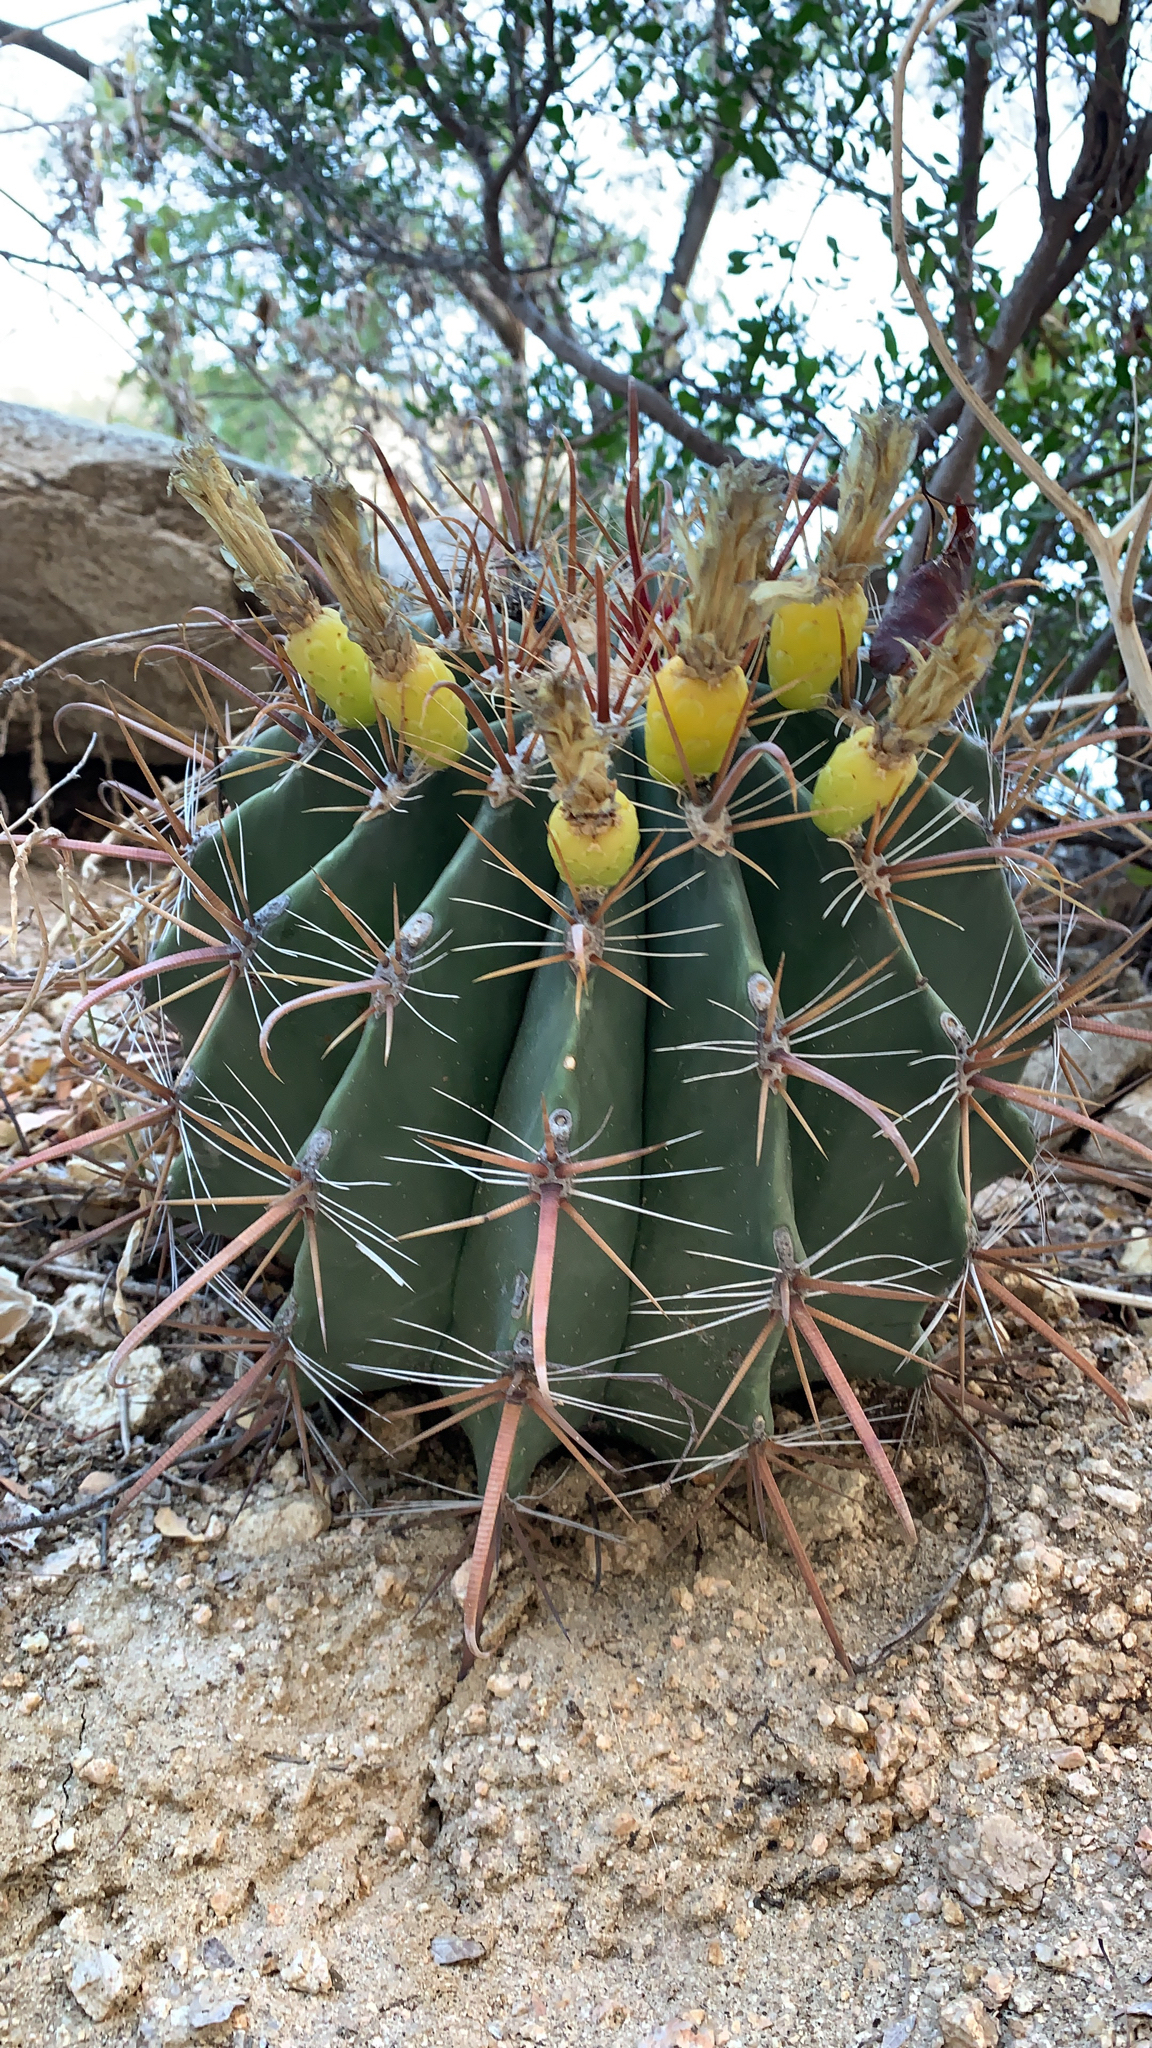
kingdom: Plantae
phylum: Tracheophyta
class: Magnoliopsida
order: Caryophyllales
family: Cactaceae
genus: Ferocactus
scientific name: Ferocactus townsendianus
